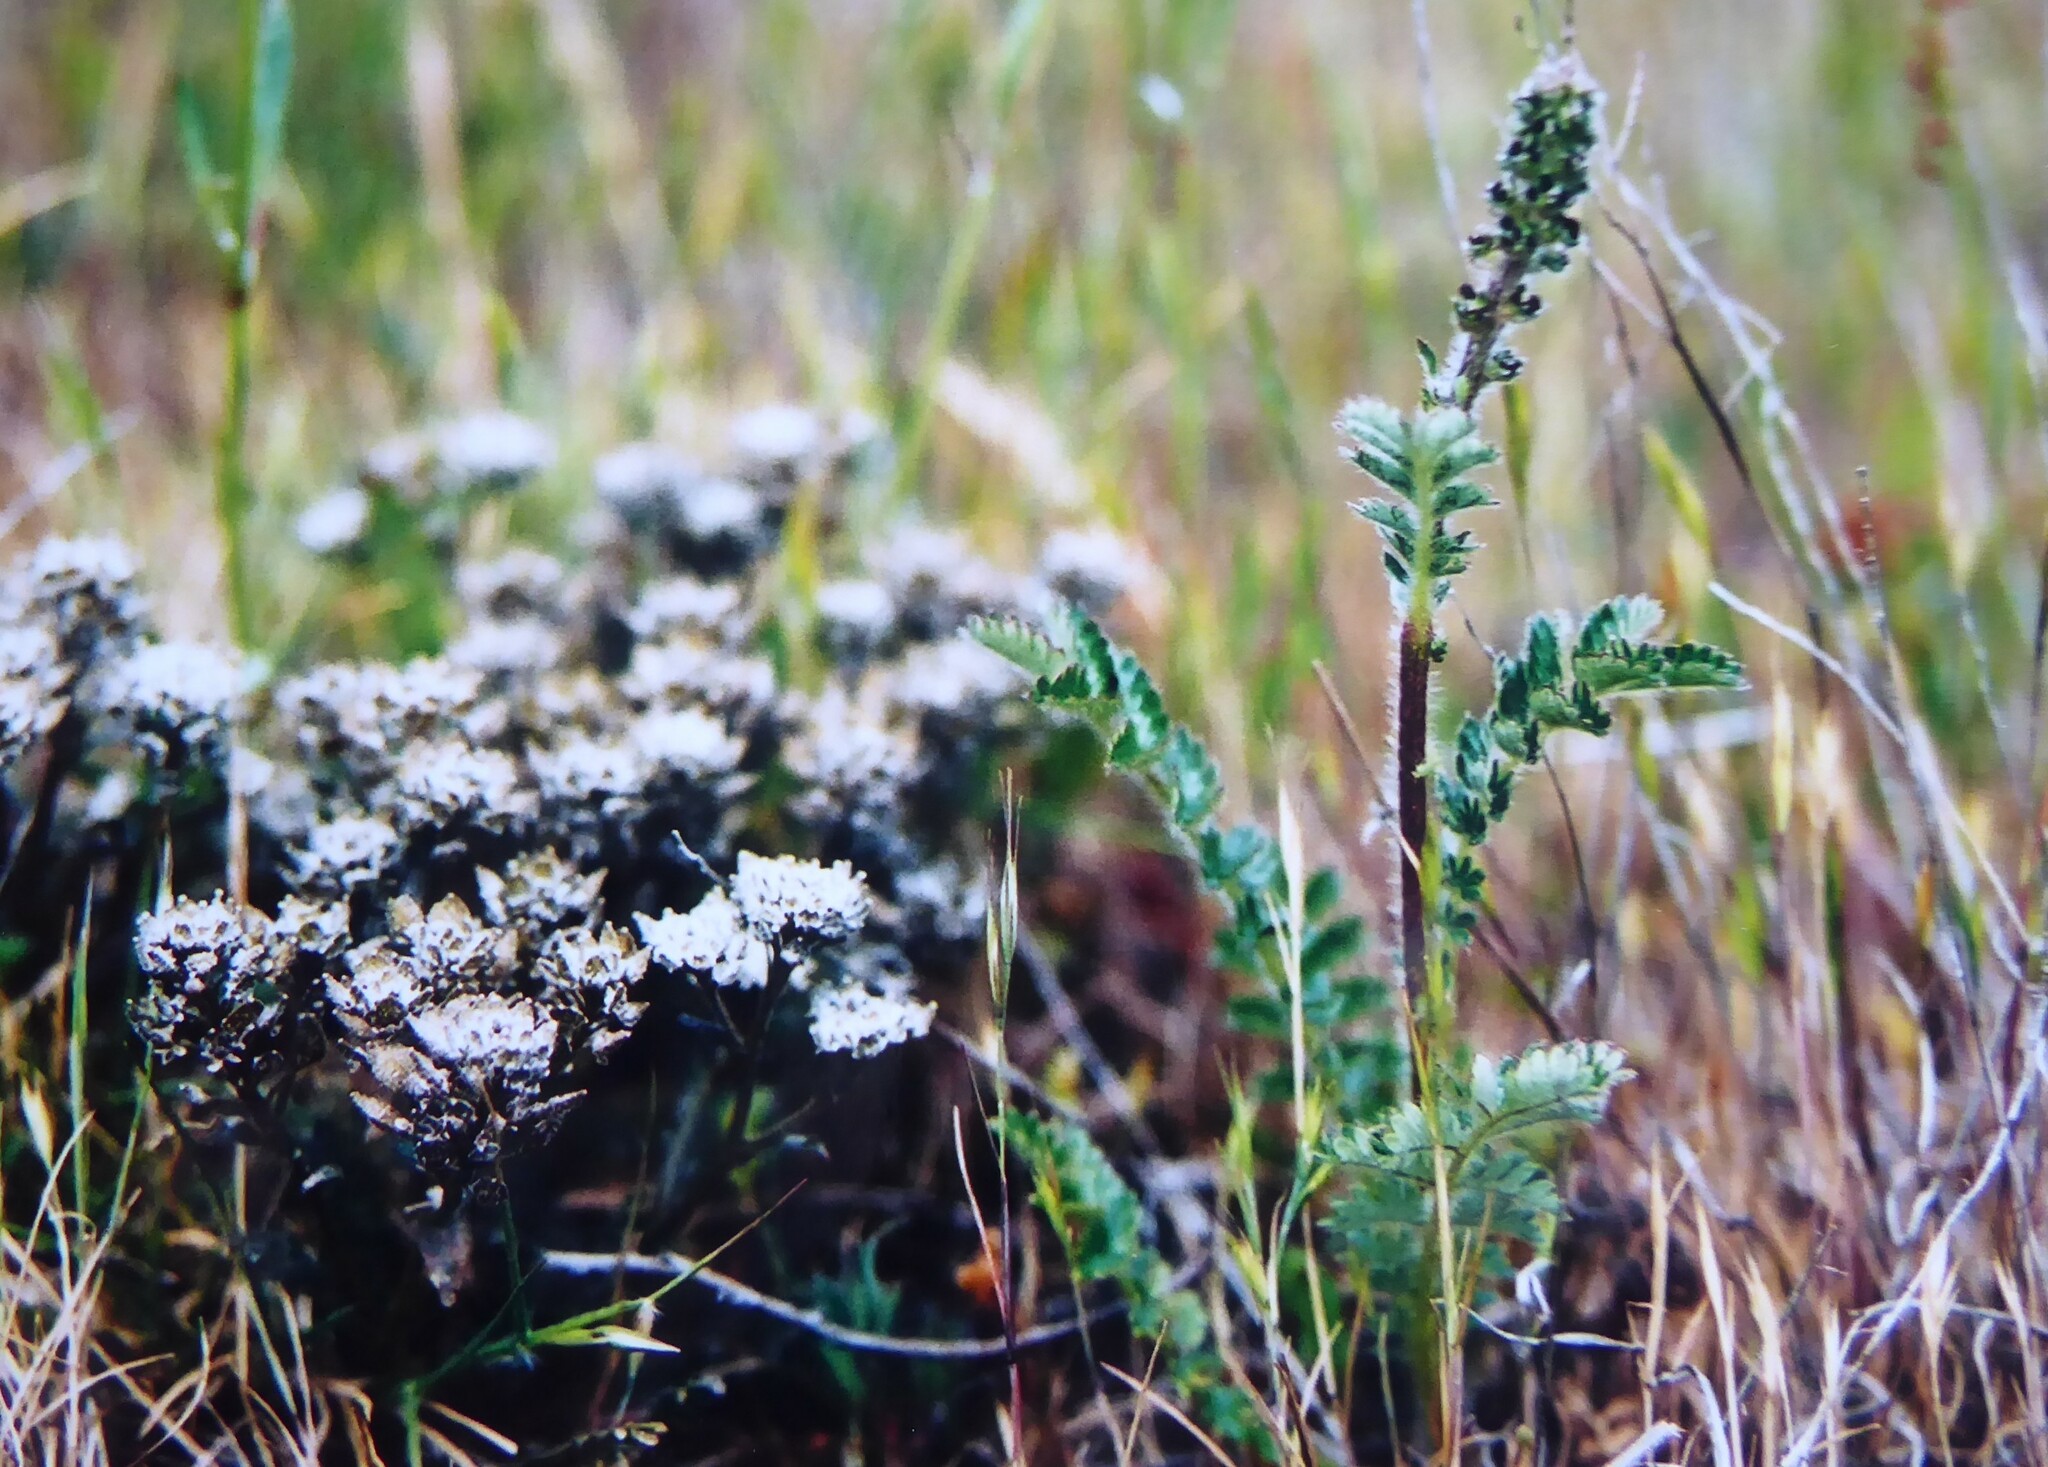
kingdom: Plantae
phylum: Tracheophyta
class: Magnoliopsida
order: Rosales
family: Rosaceae
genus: Acaena
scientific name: Acaena agnipila
